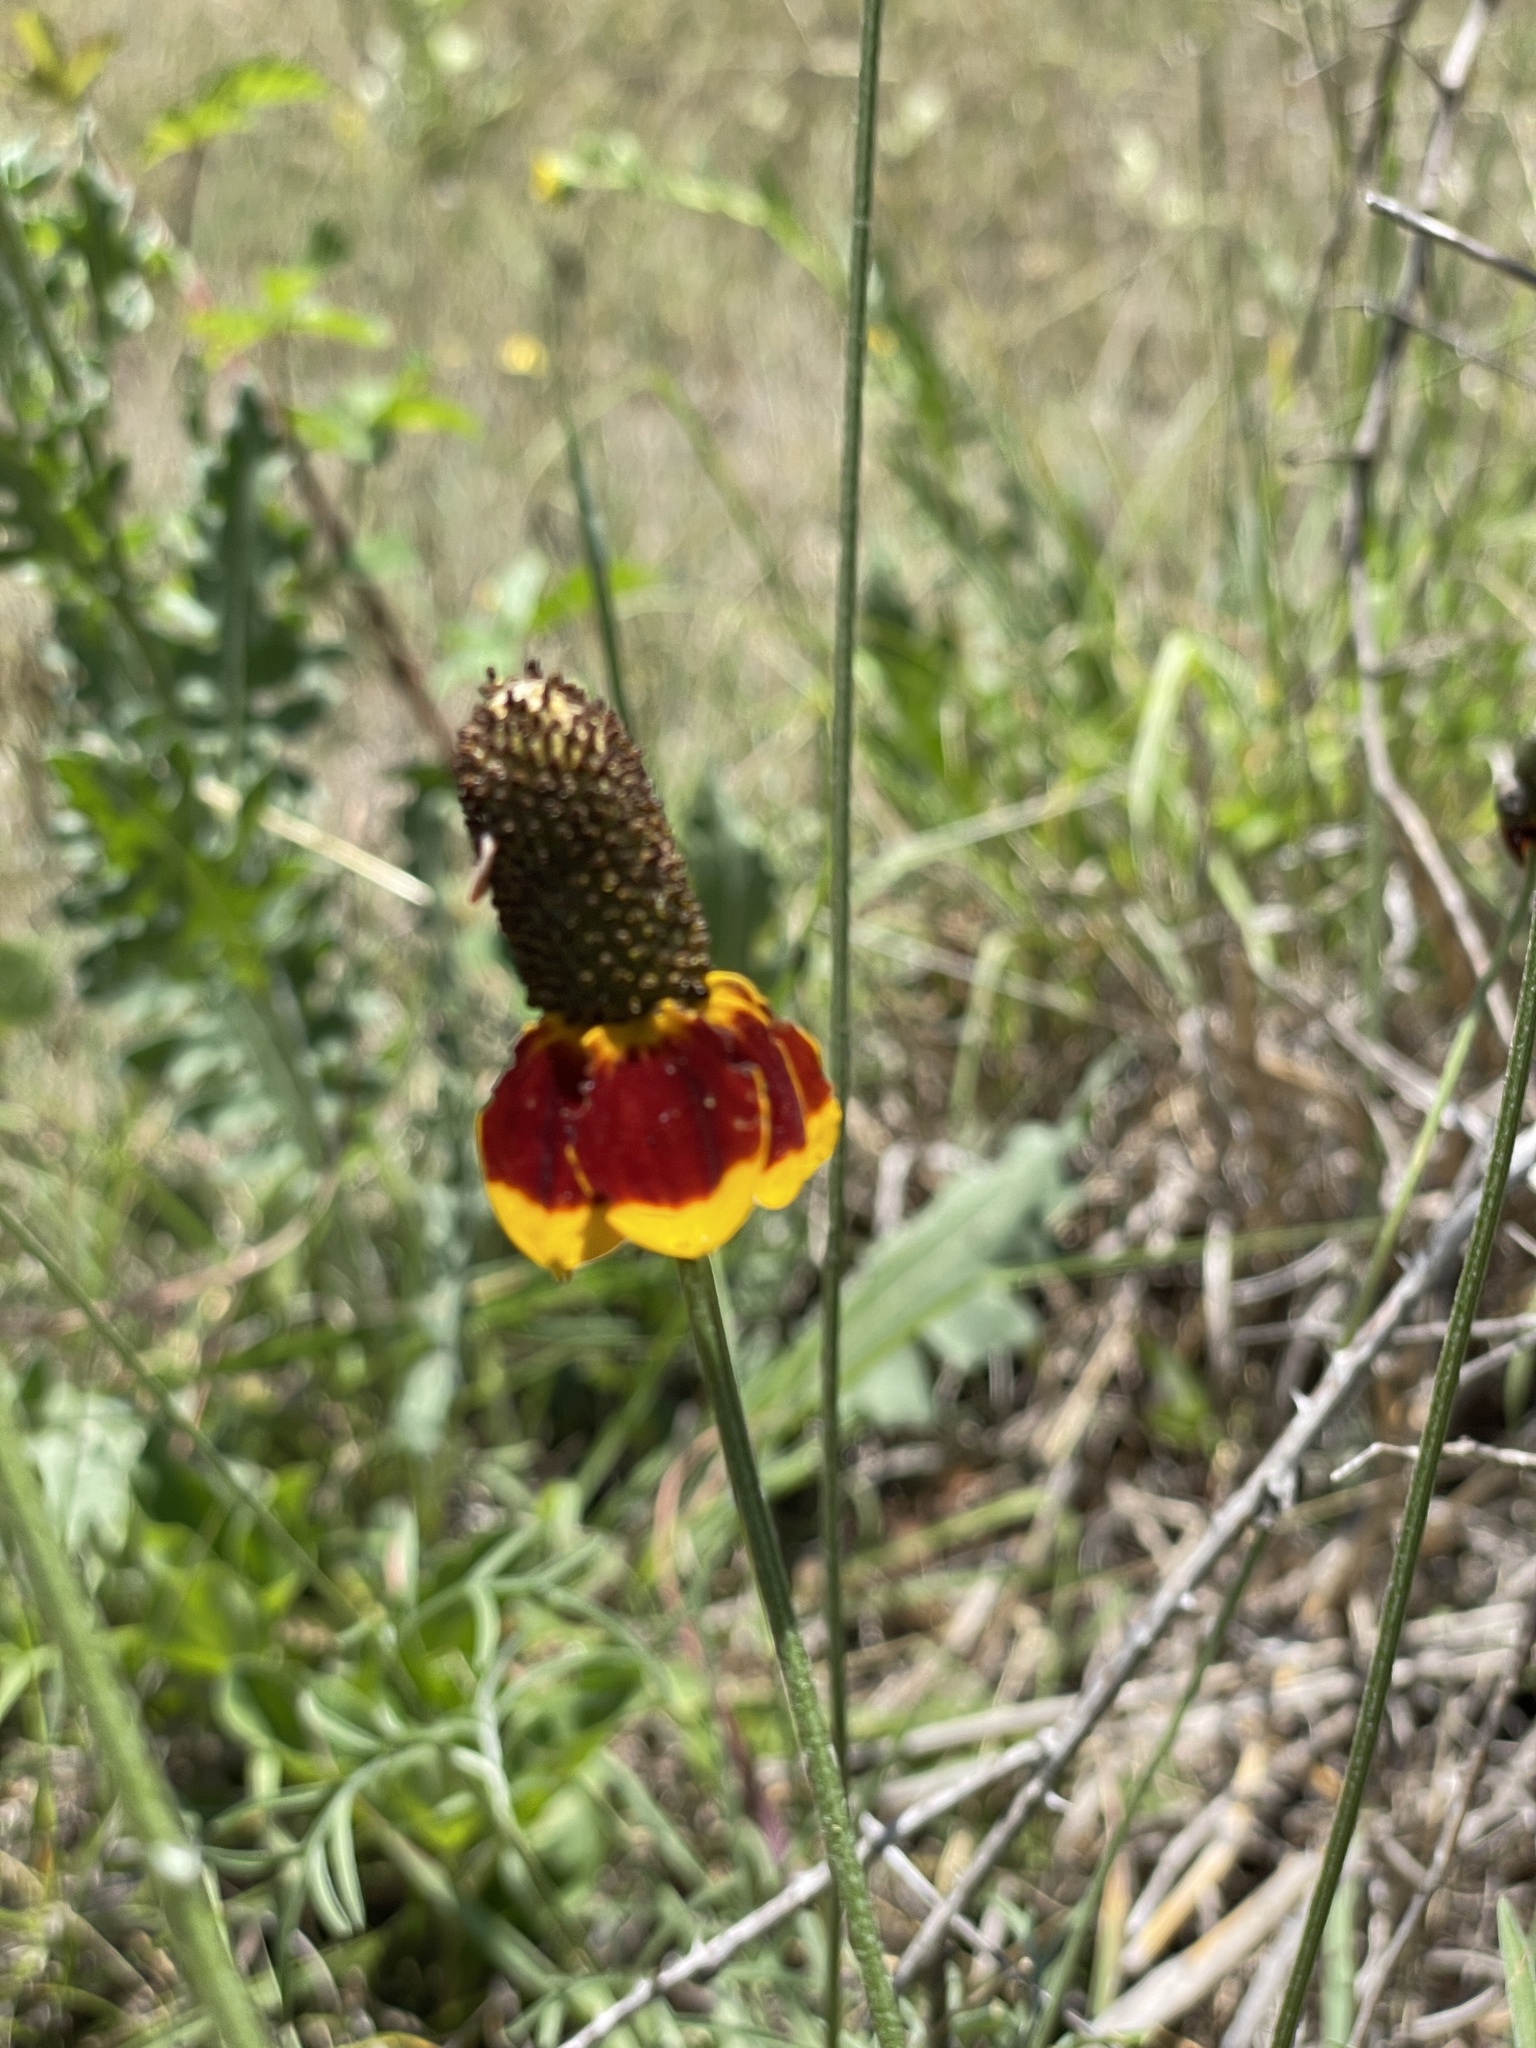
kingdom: Plantae
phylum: Tracheophyta
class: Magnoliopsida
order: Asterales
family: Asteraceae
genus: Ratibida
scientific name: Ratibida columnifera
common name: Prairie coneflower
